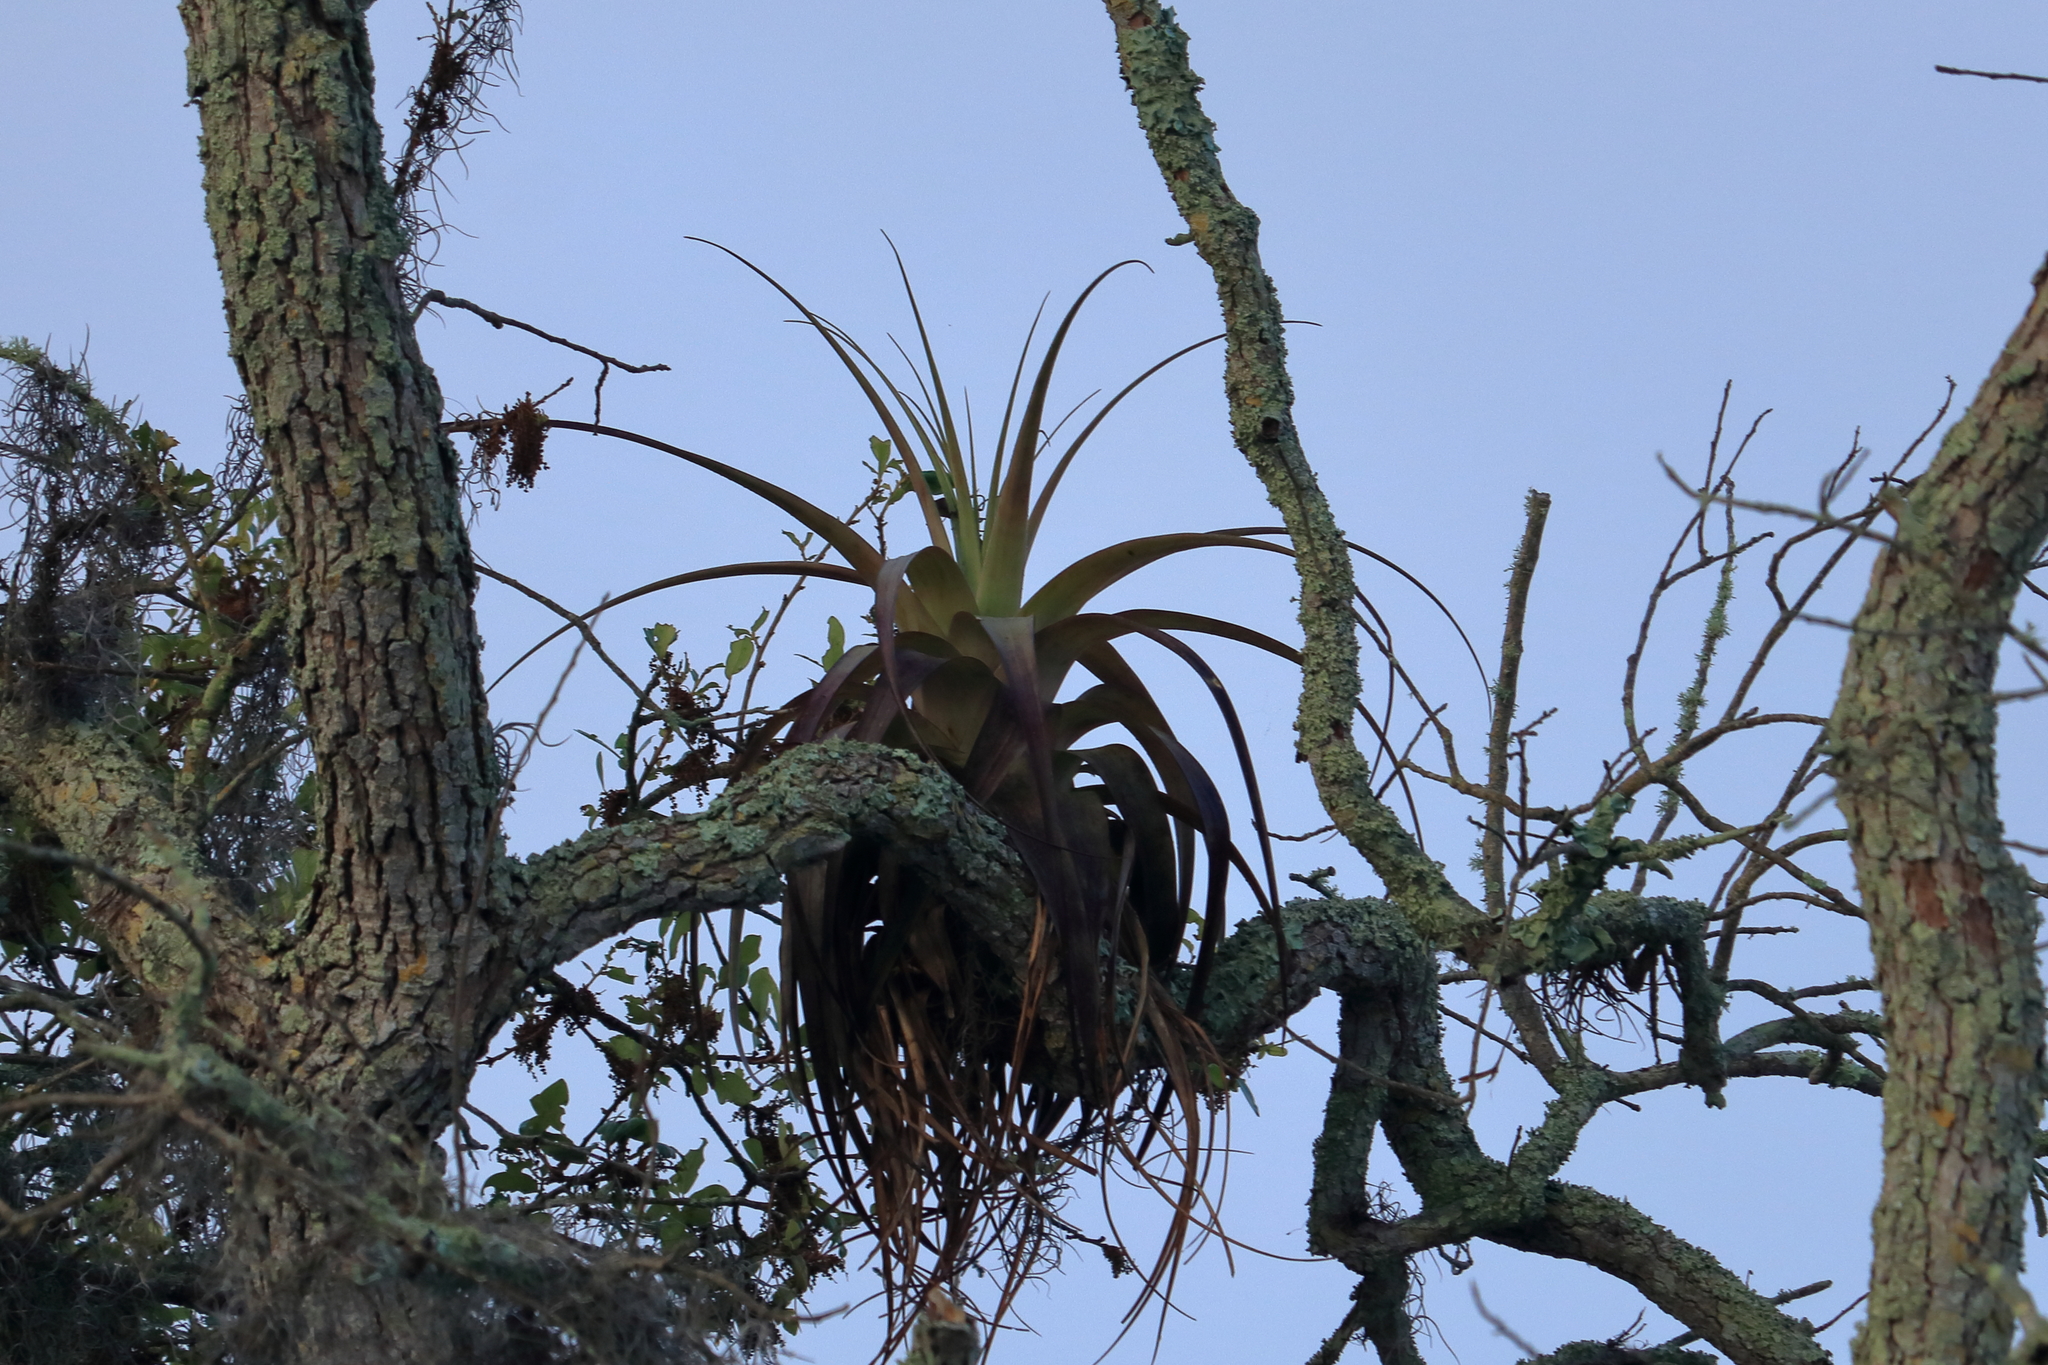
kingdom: Plantae
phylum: Tracheophyta
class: Liliopsida
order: Poales
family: Bromeliaceae
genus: Tillandsia
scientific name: Tillandsia utriculata
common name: Wild pine
